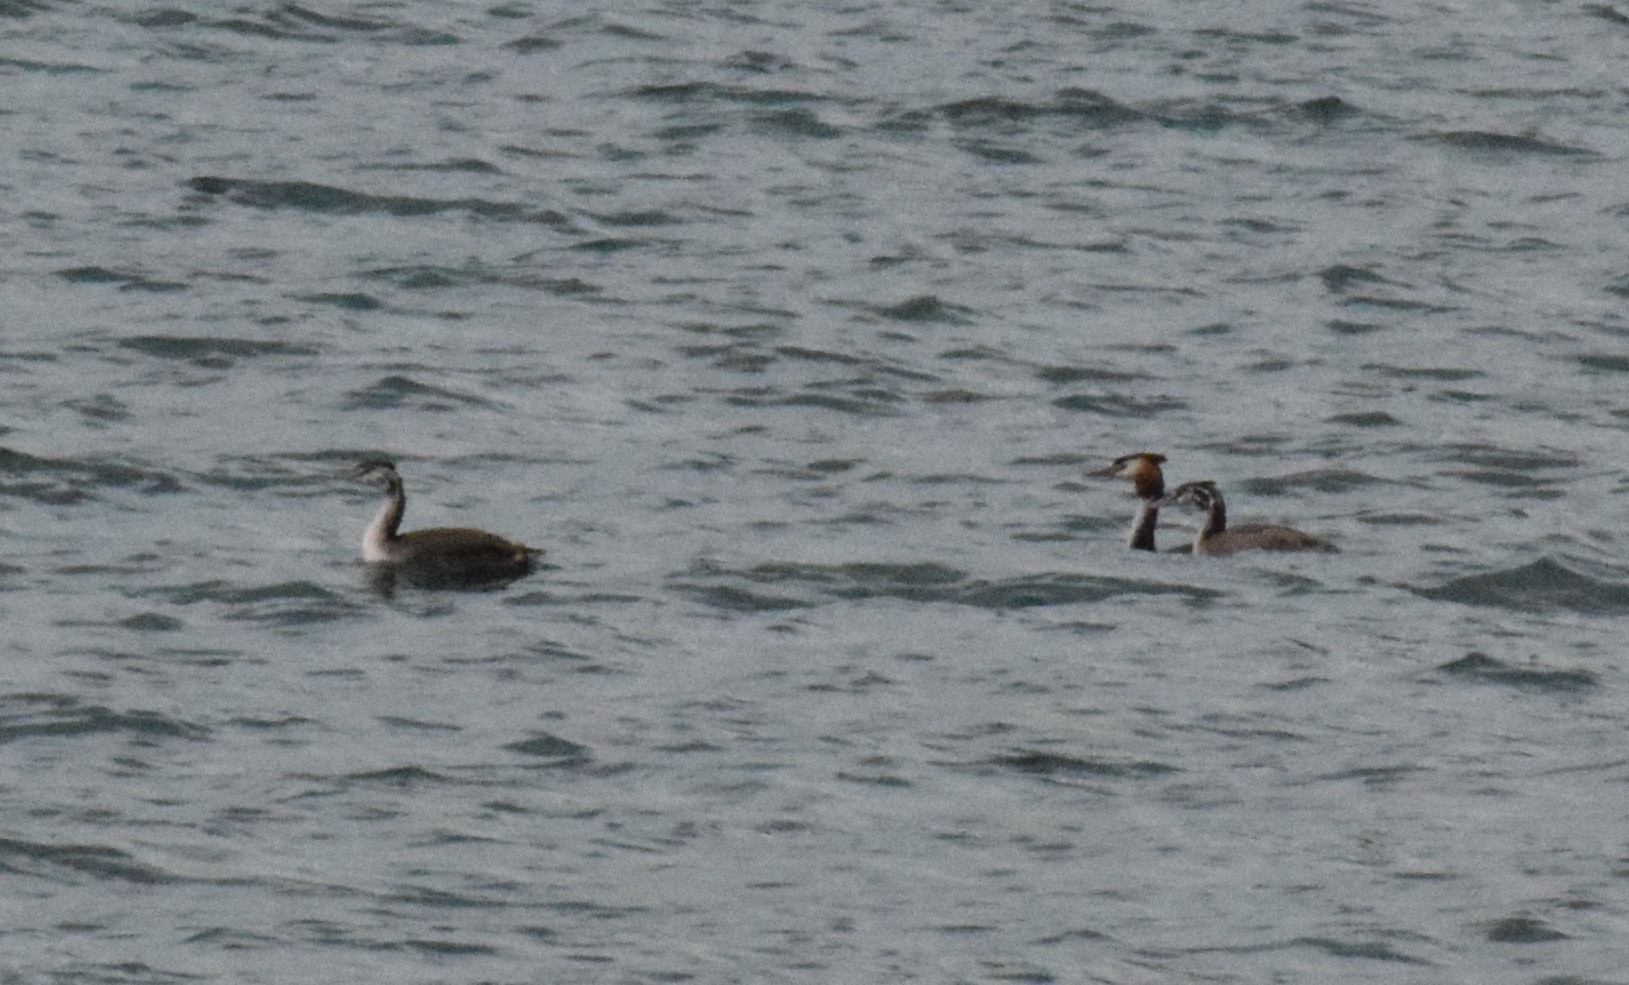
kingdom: Animalia
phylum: Chordata
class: Aves
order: Podicipediformes
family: Podicipedidae
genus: Podiceps
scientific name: Podiceps cristatus
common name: Great crested grebe
